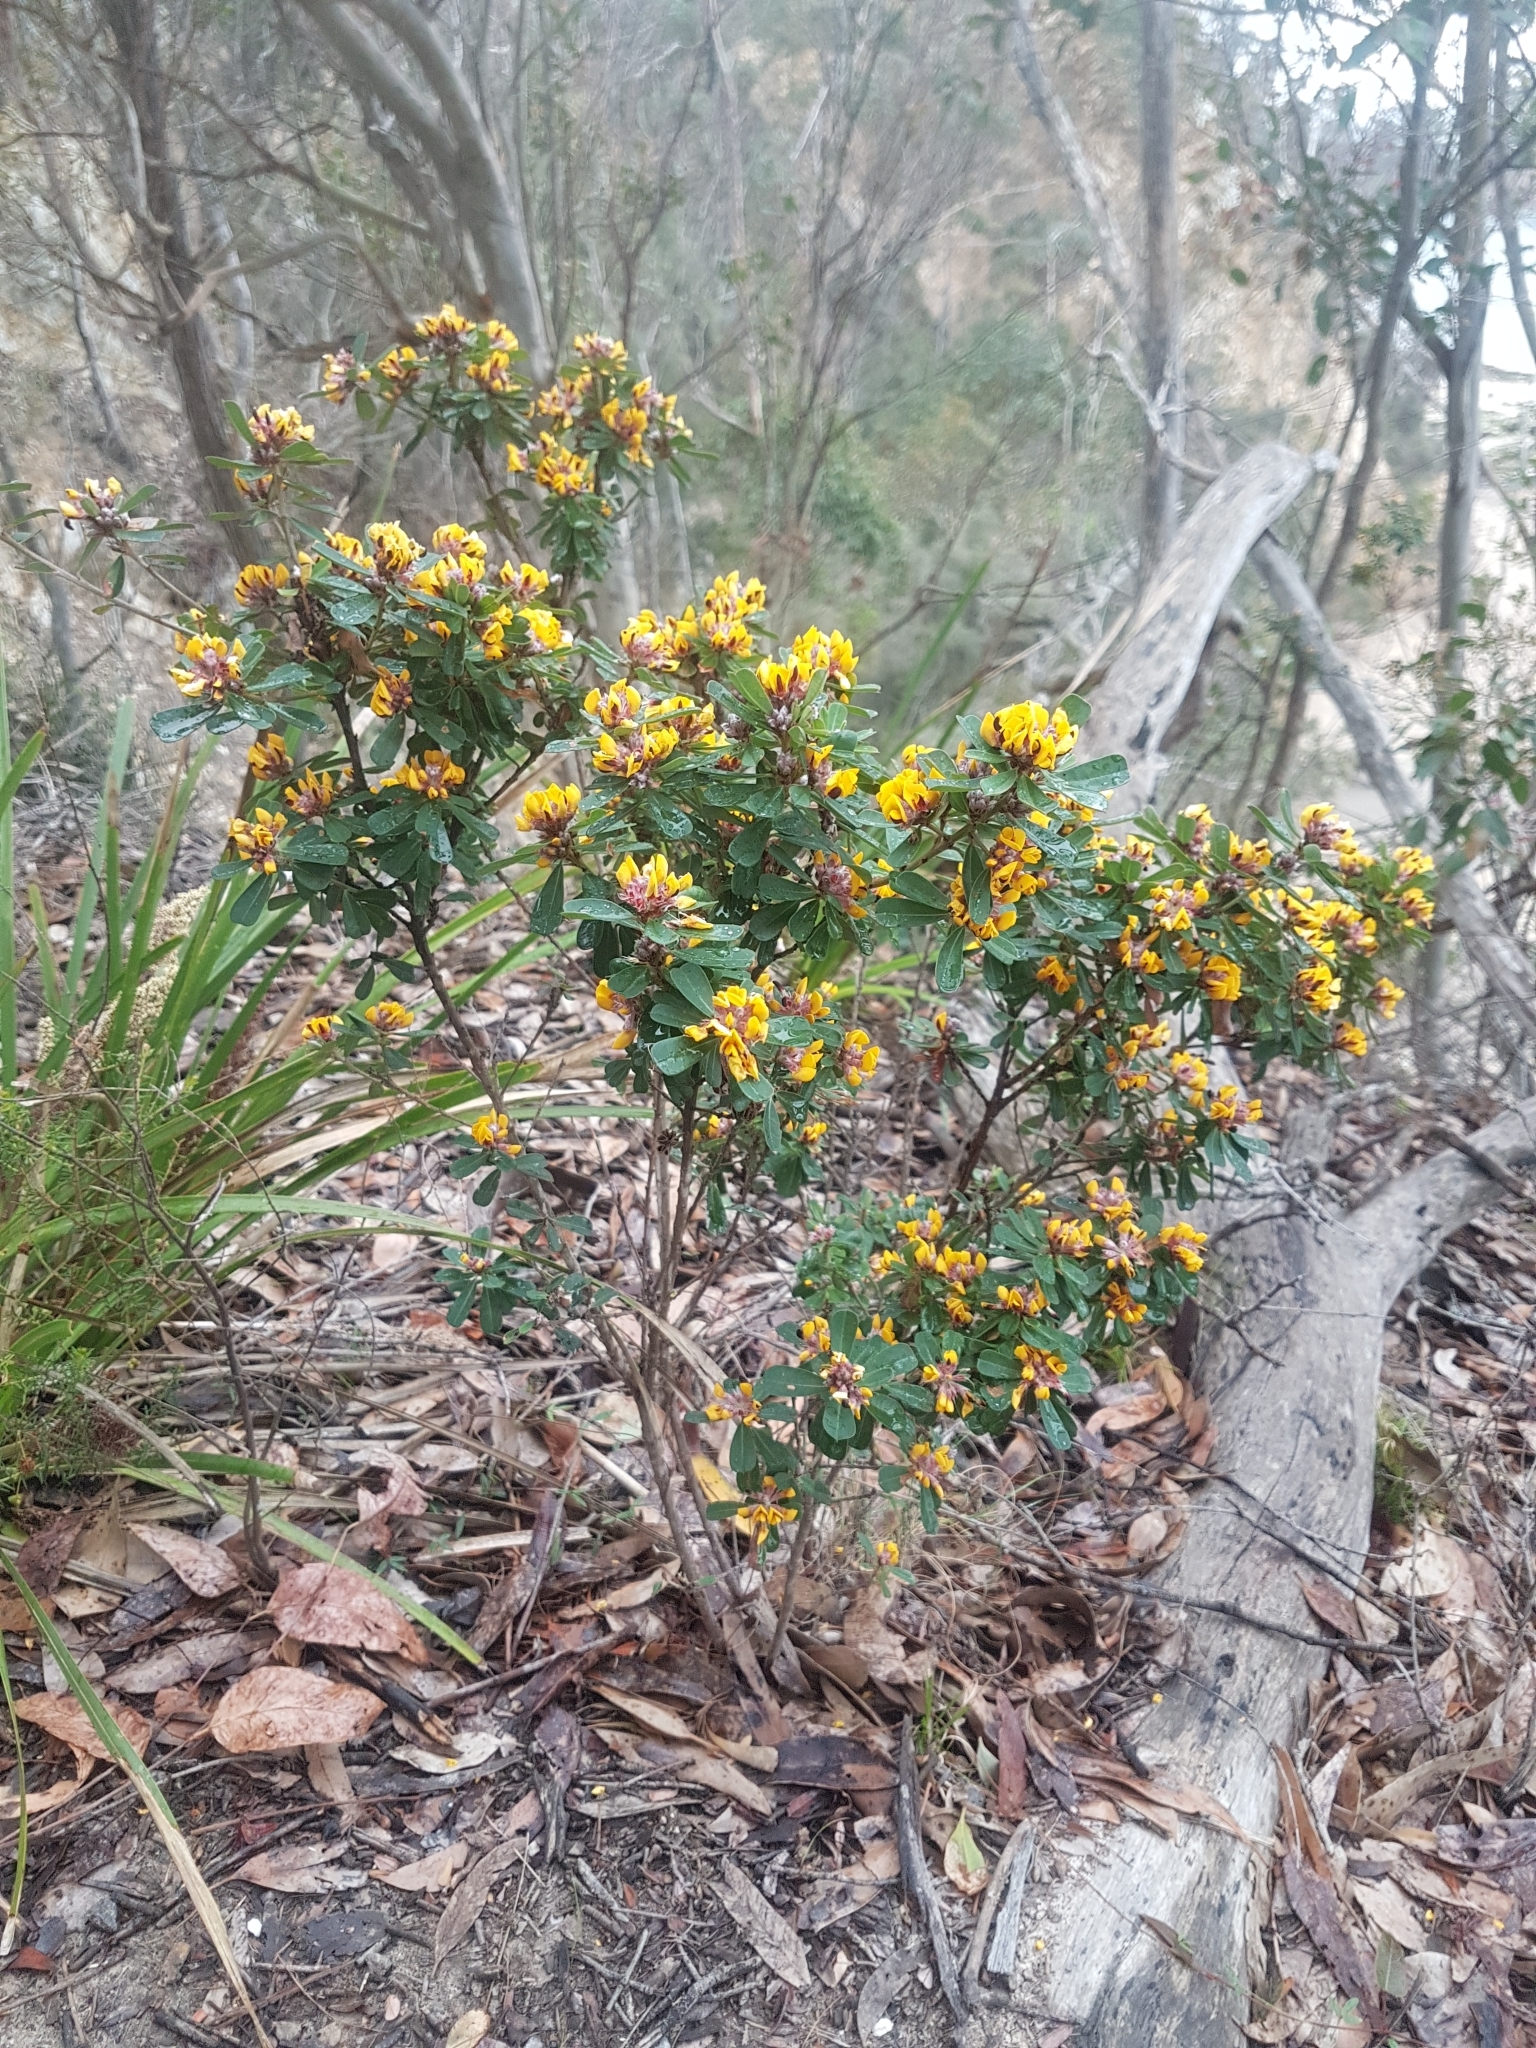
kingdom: Plantae
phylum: Tracheophyta
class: Magnoliopsida
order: Fabales
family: Fabaceae
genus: Pultenaea
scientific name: Pultenaea daphnoides
